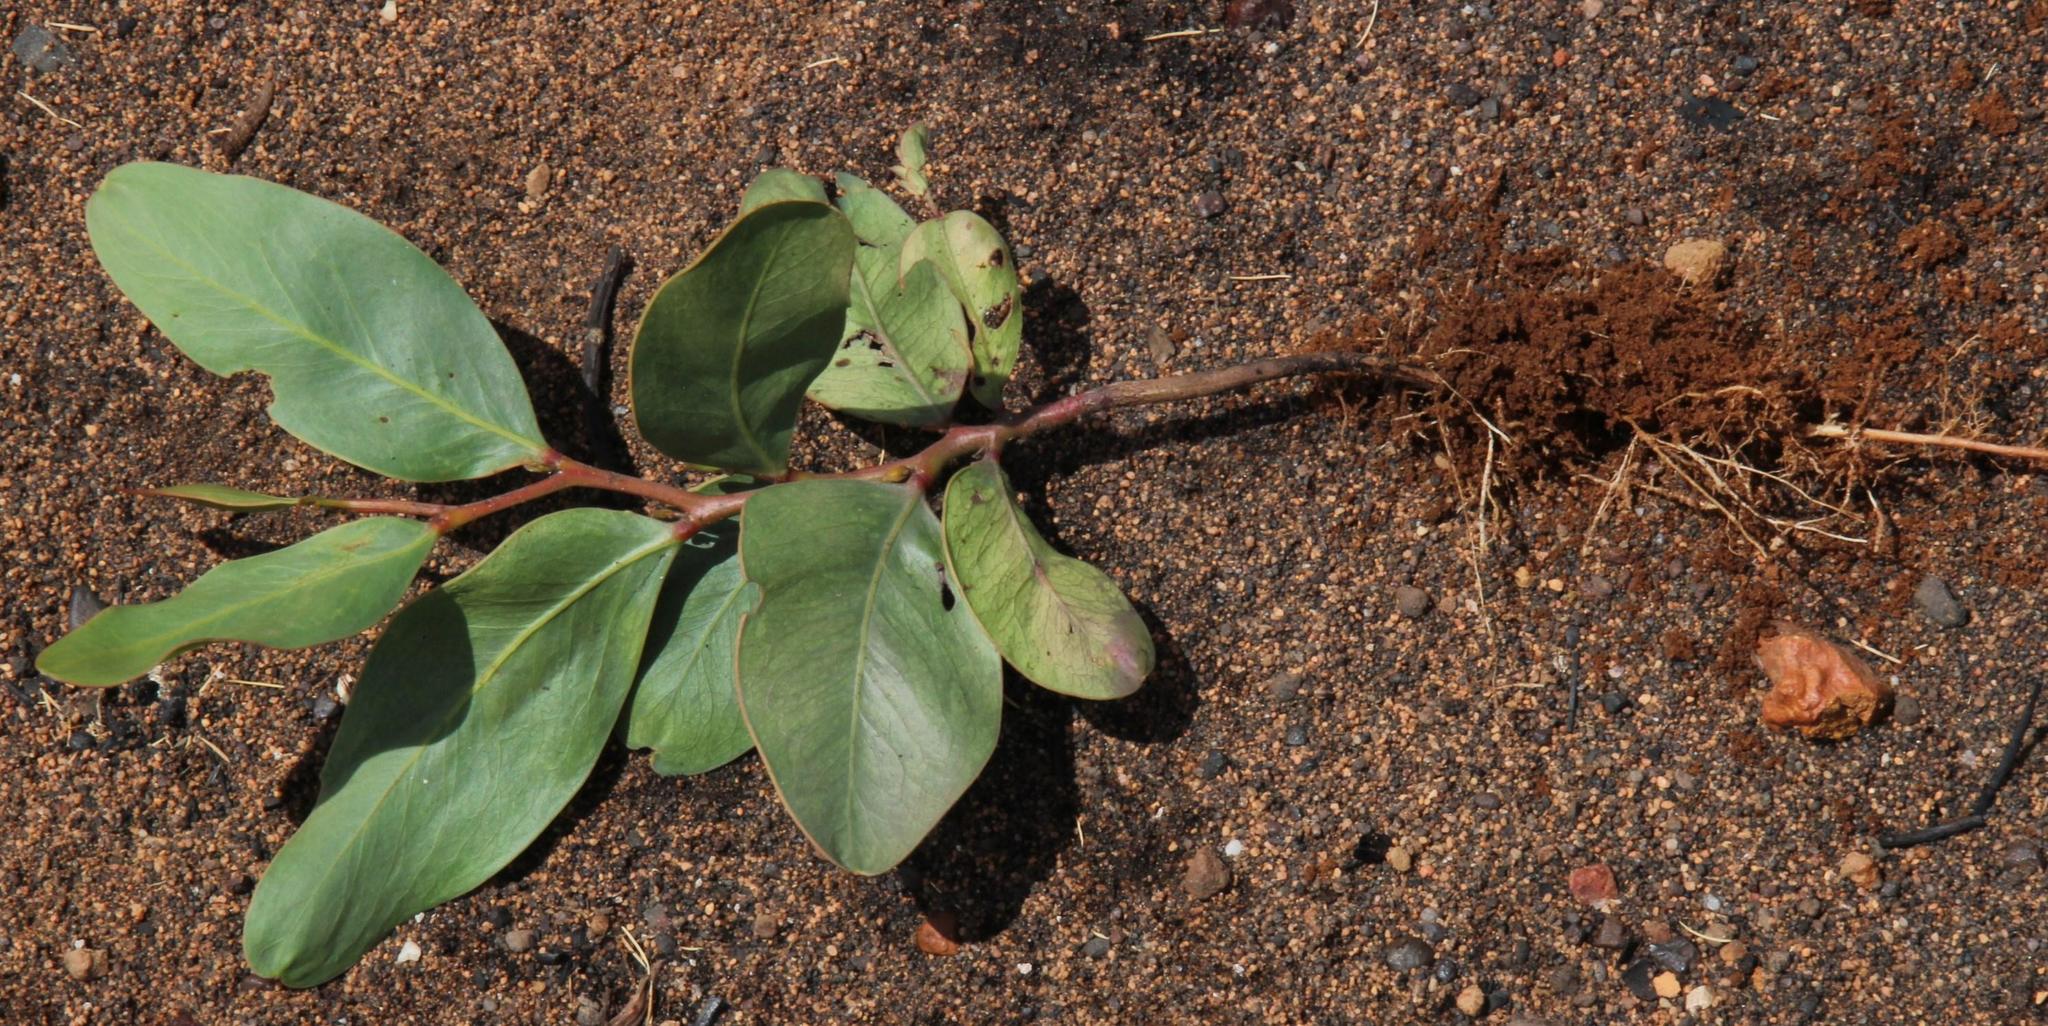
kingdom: Plantae
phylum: Tracheophyta
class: Magnoliopsida
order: Fabales
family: Fabaceae
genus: Acacia
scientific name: Acacia pycnantha
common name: Golden wattle
